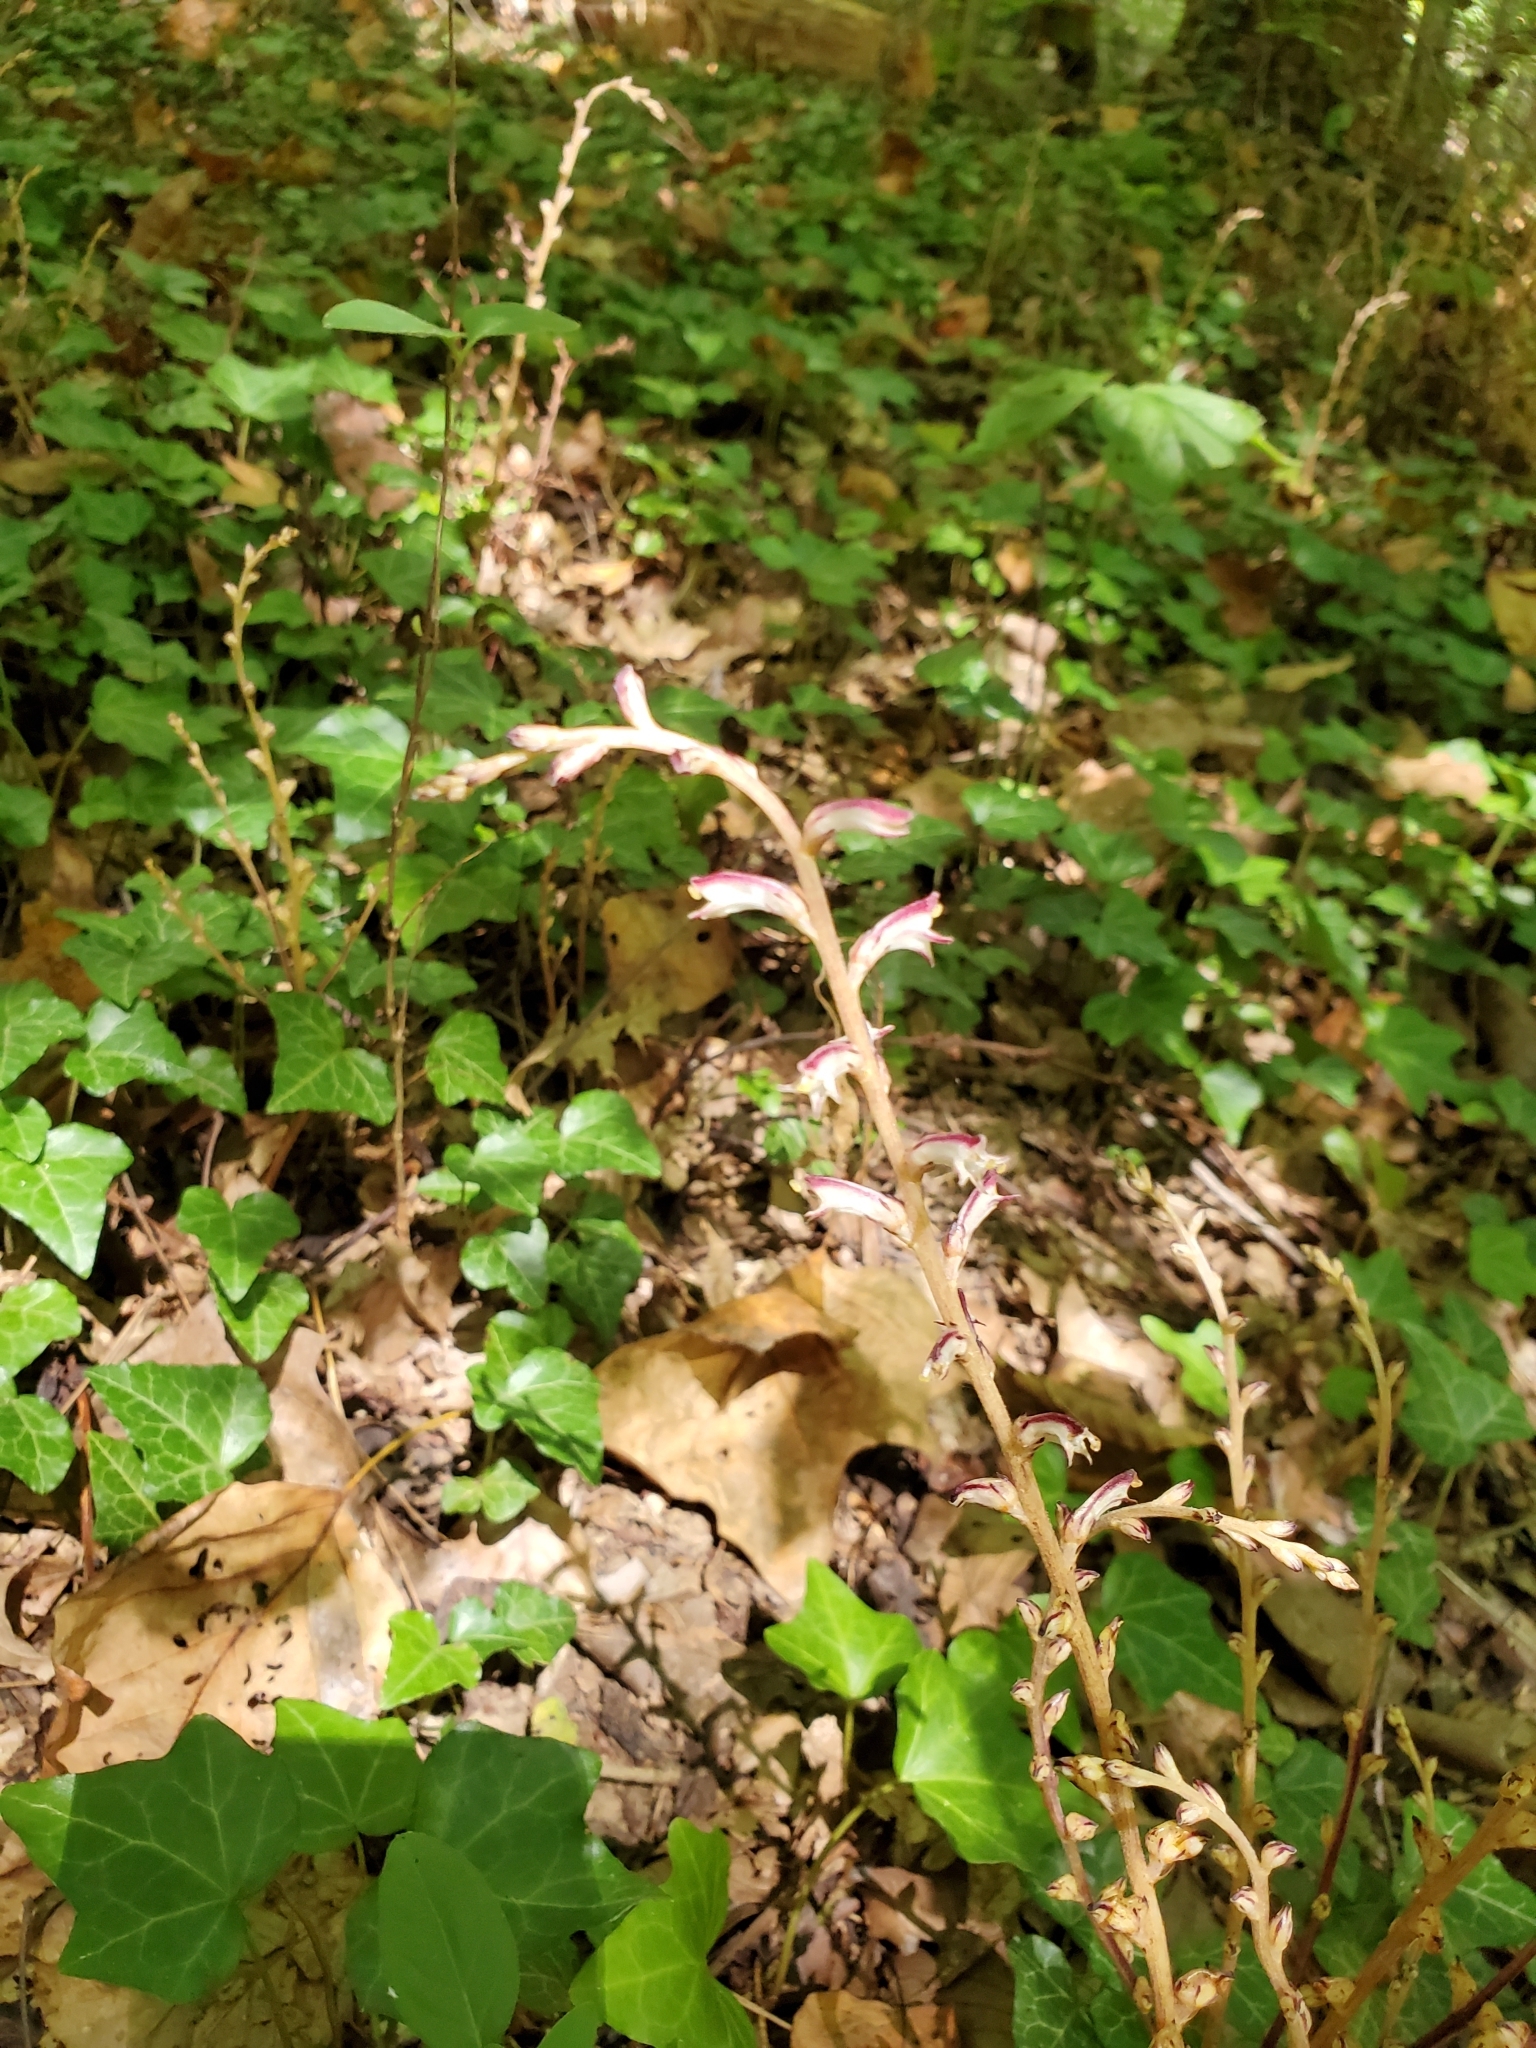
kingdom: Plantae
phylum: Tracheophyta
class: Magnoliopsida
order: Lamiales
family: Orobanchaceae
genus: Epifagus
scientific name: Epifagus virginiana
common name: Beechdrops
